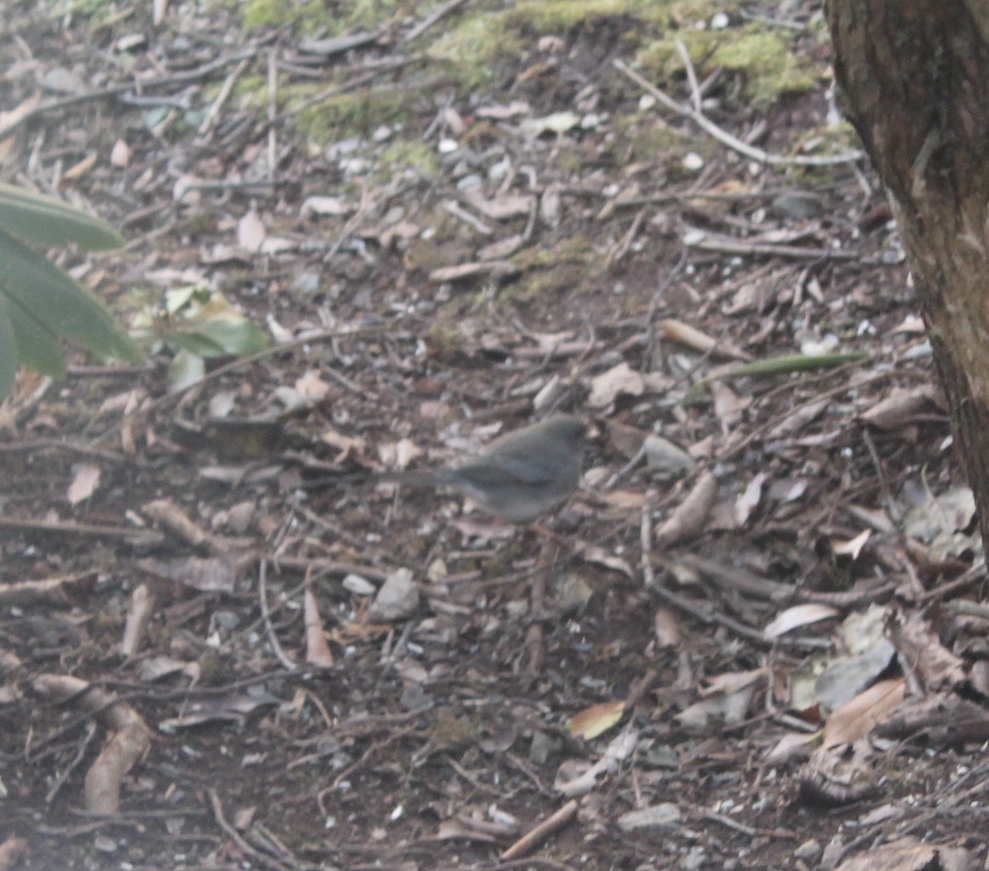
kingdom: Animalia
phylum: Chordata
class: Aves
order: Passeriformes
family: Passerellidae
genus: Junco
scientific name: Junco hyemalis
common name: Dark-eyed junco
